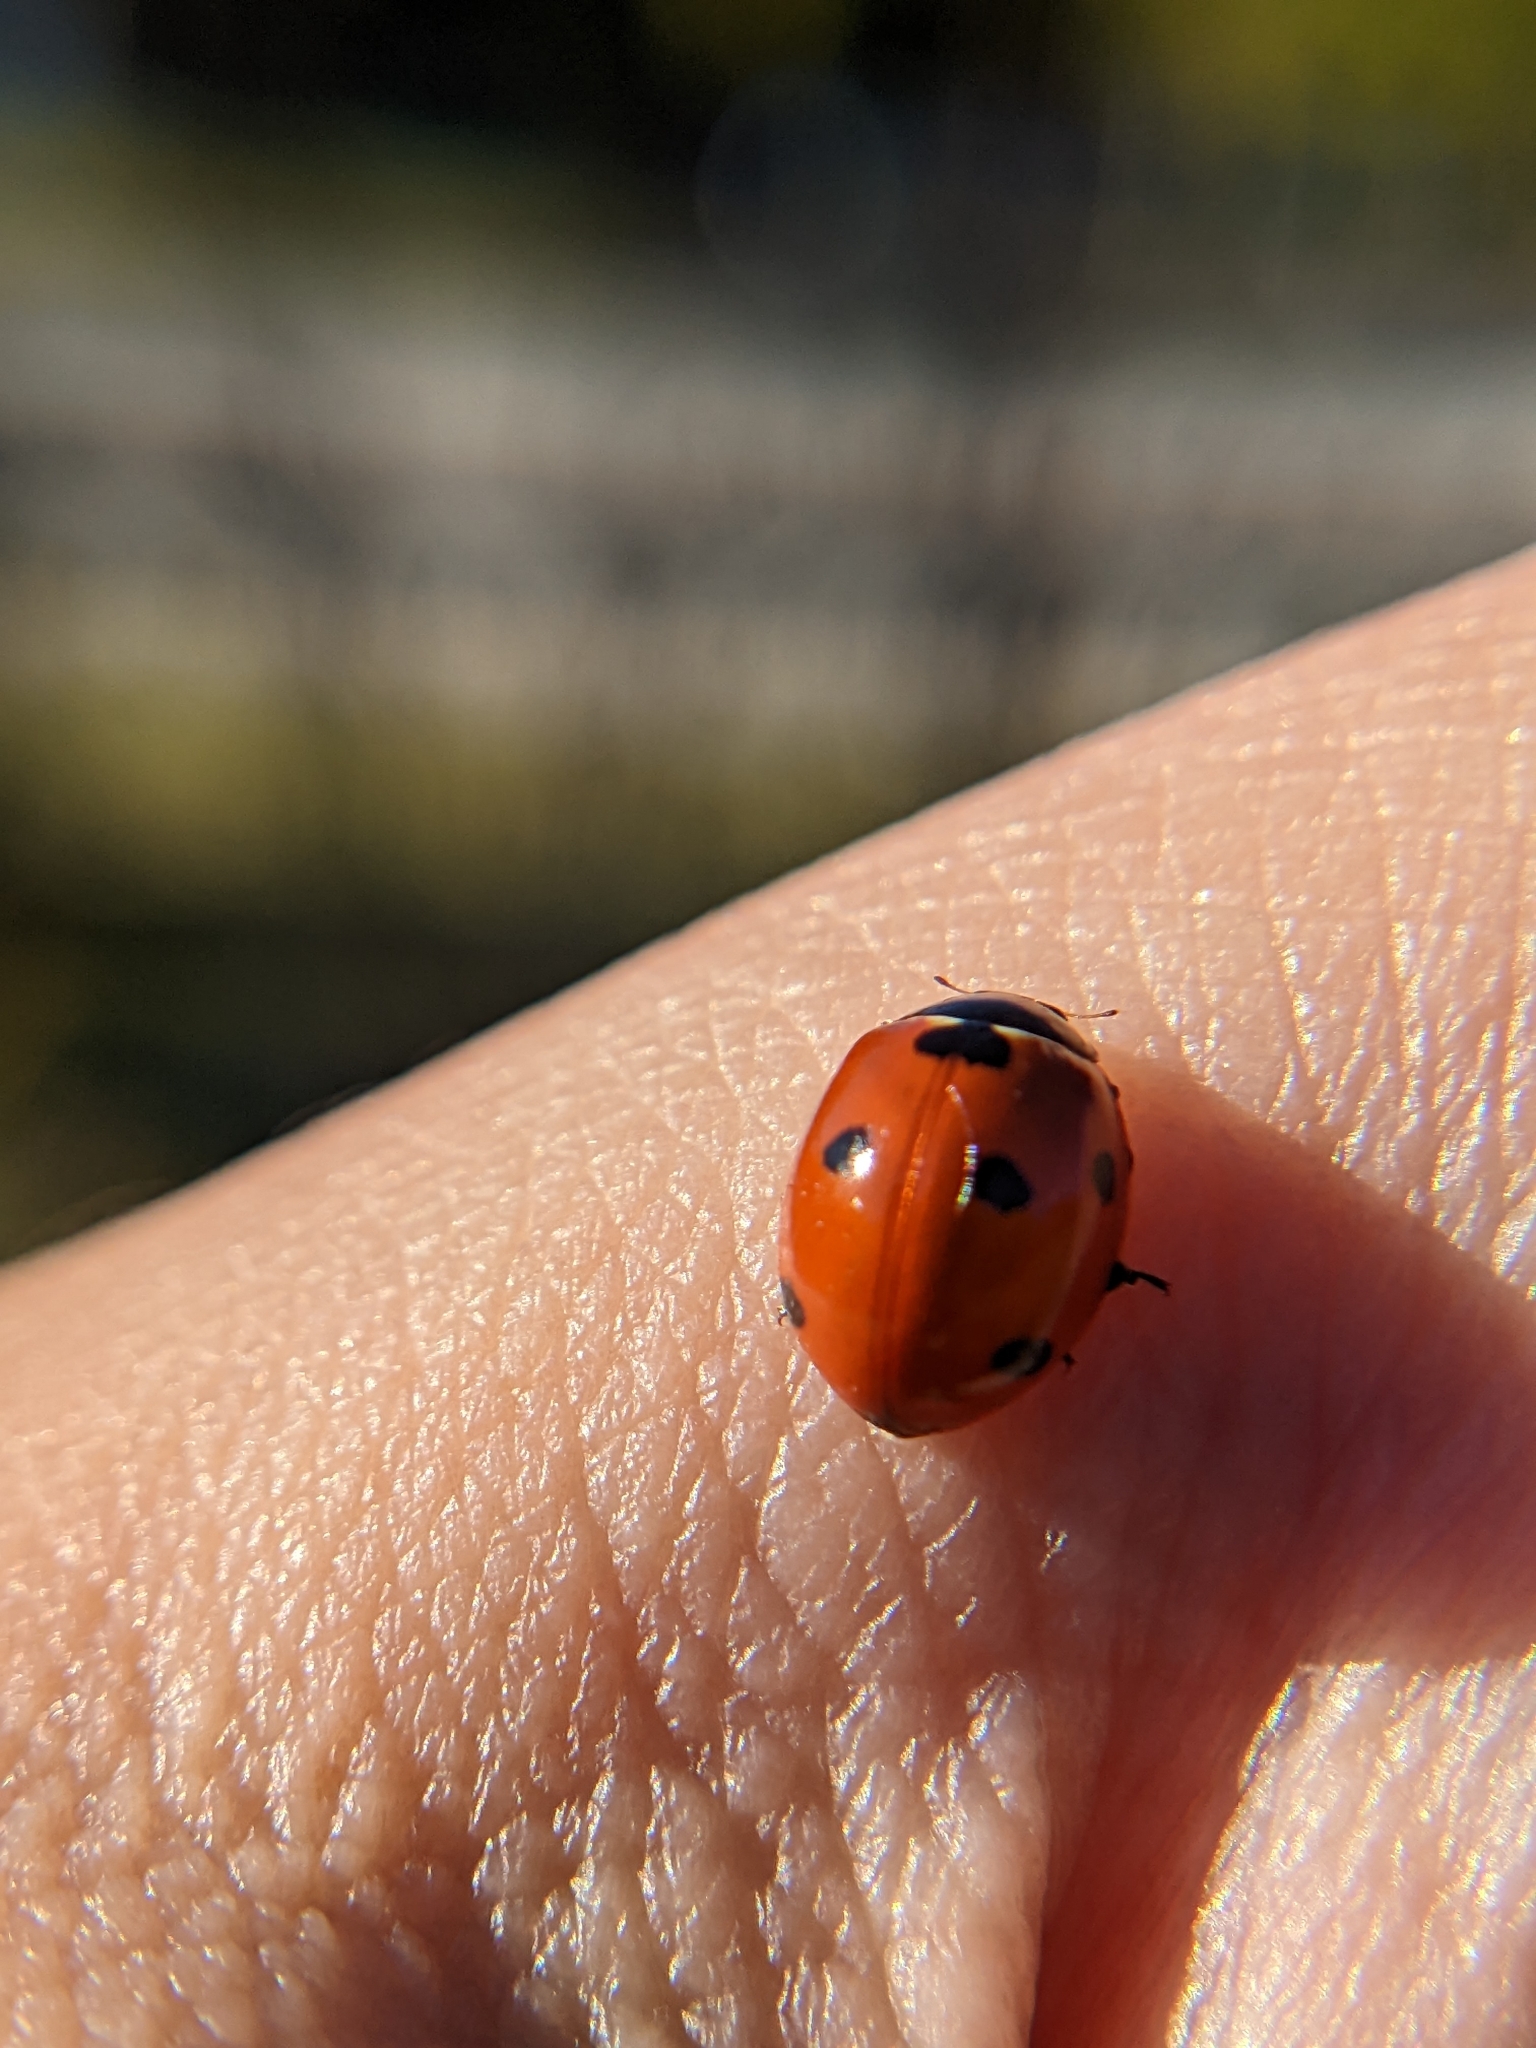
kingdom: Animalia
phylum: Arthropoda
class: Insecta
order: Coleoptera
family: Coccinellidae
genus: Coccinella
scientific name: Coccinella septempunctata
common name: Sevenspotted lady beetle
